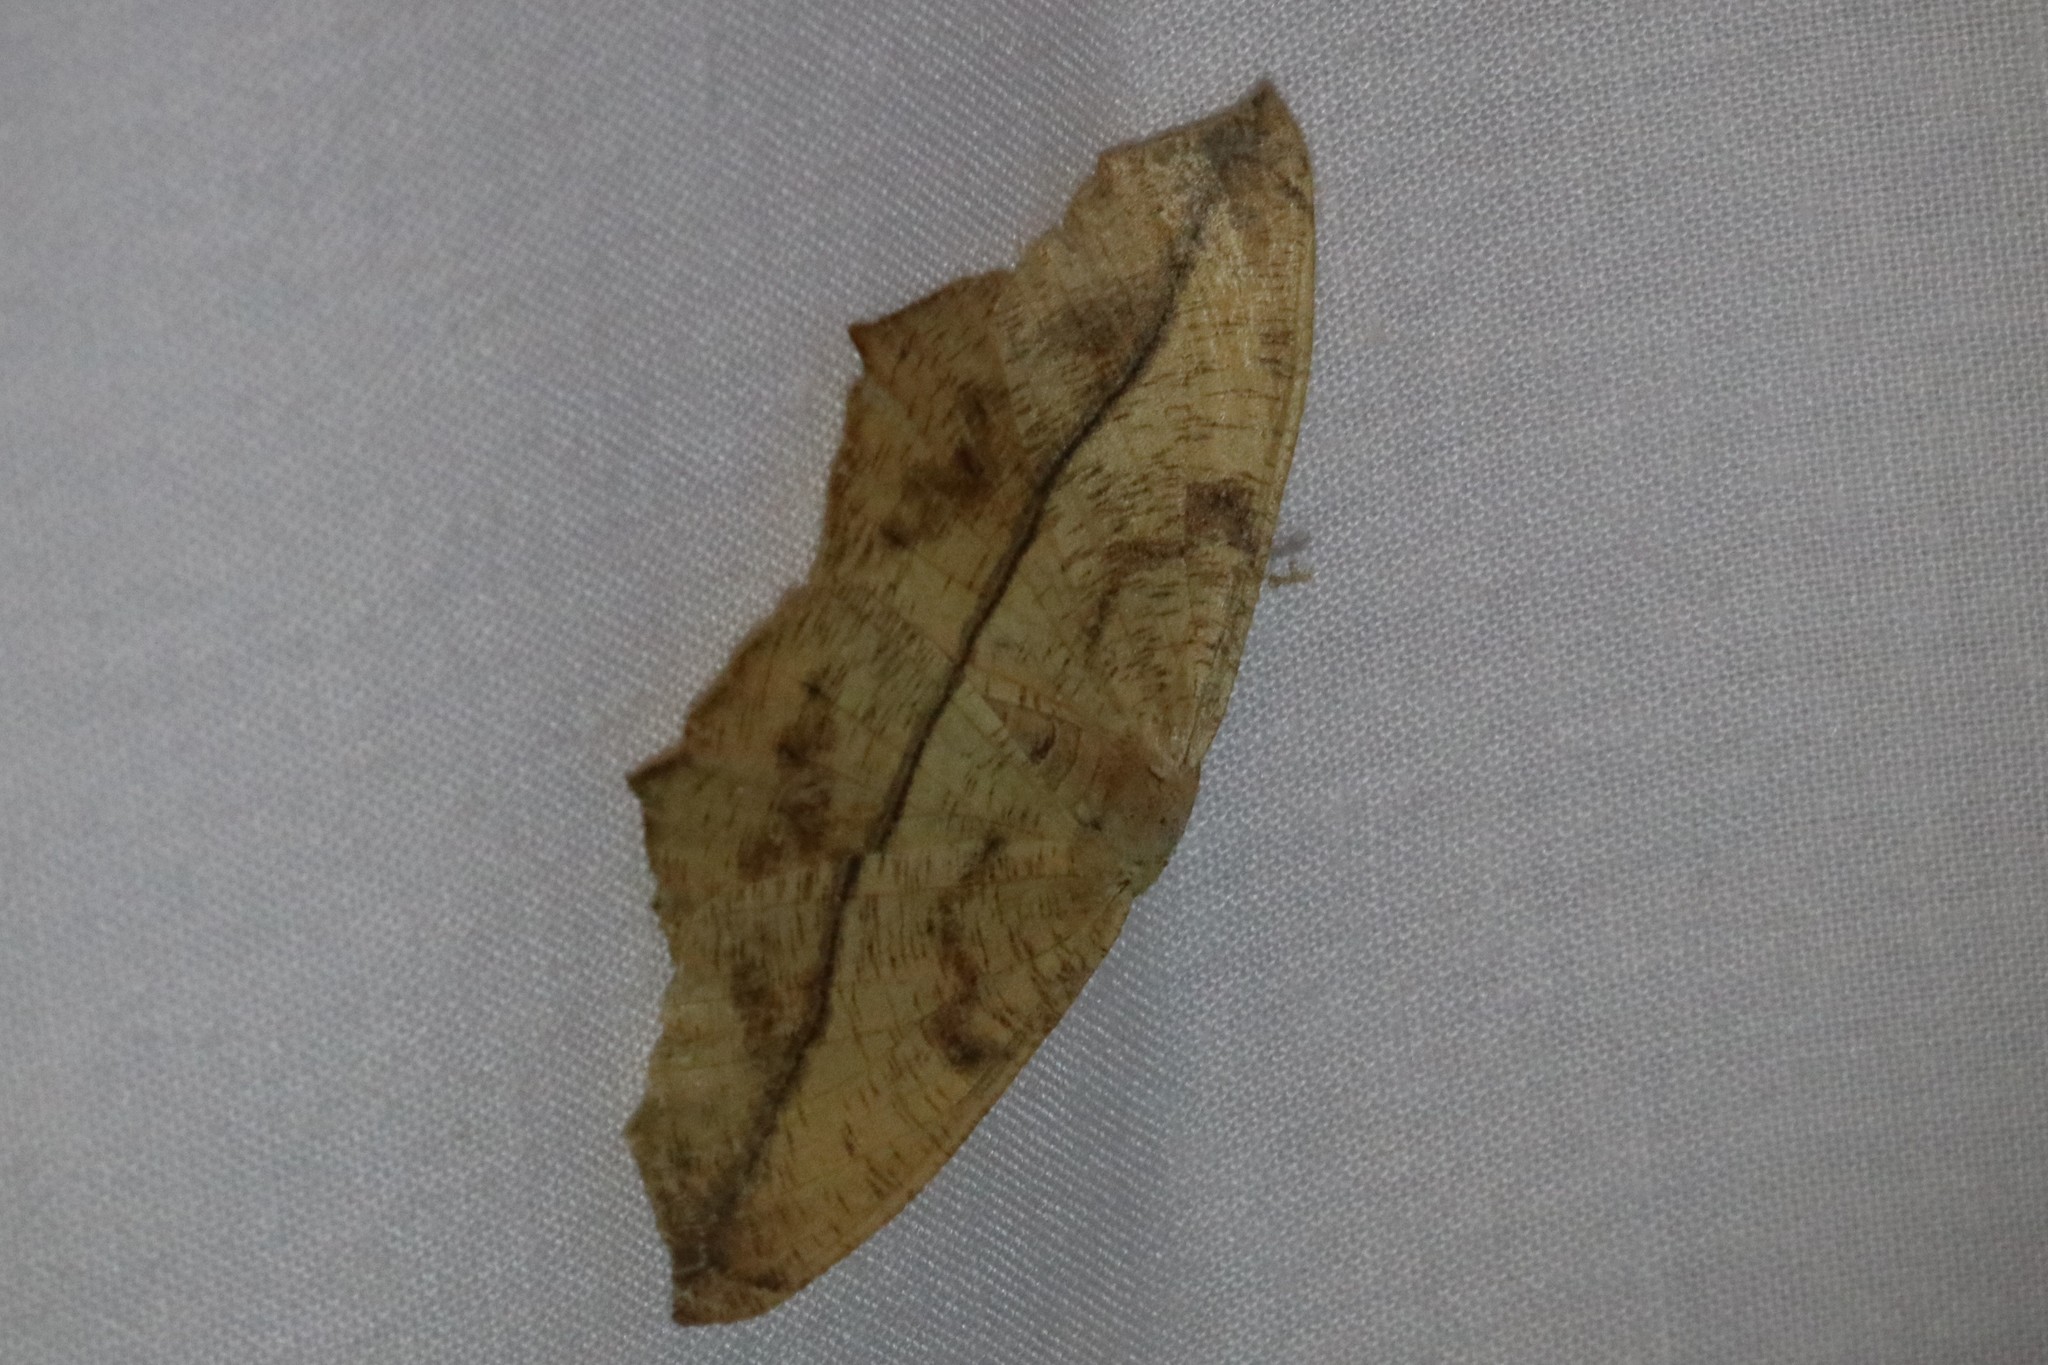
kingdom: Animalia
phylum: Arthropoda
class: Insecta
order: Lepidoptera
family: Geometridae
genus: Prochoerodes
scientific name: Prochoerodes lineola
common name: Large maple spanworm
